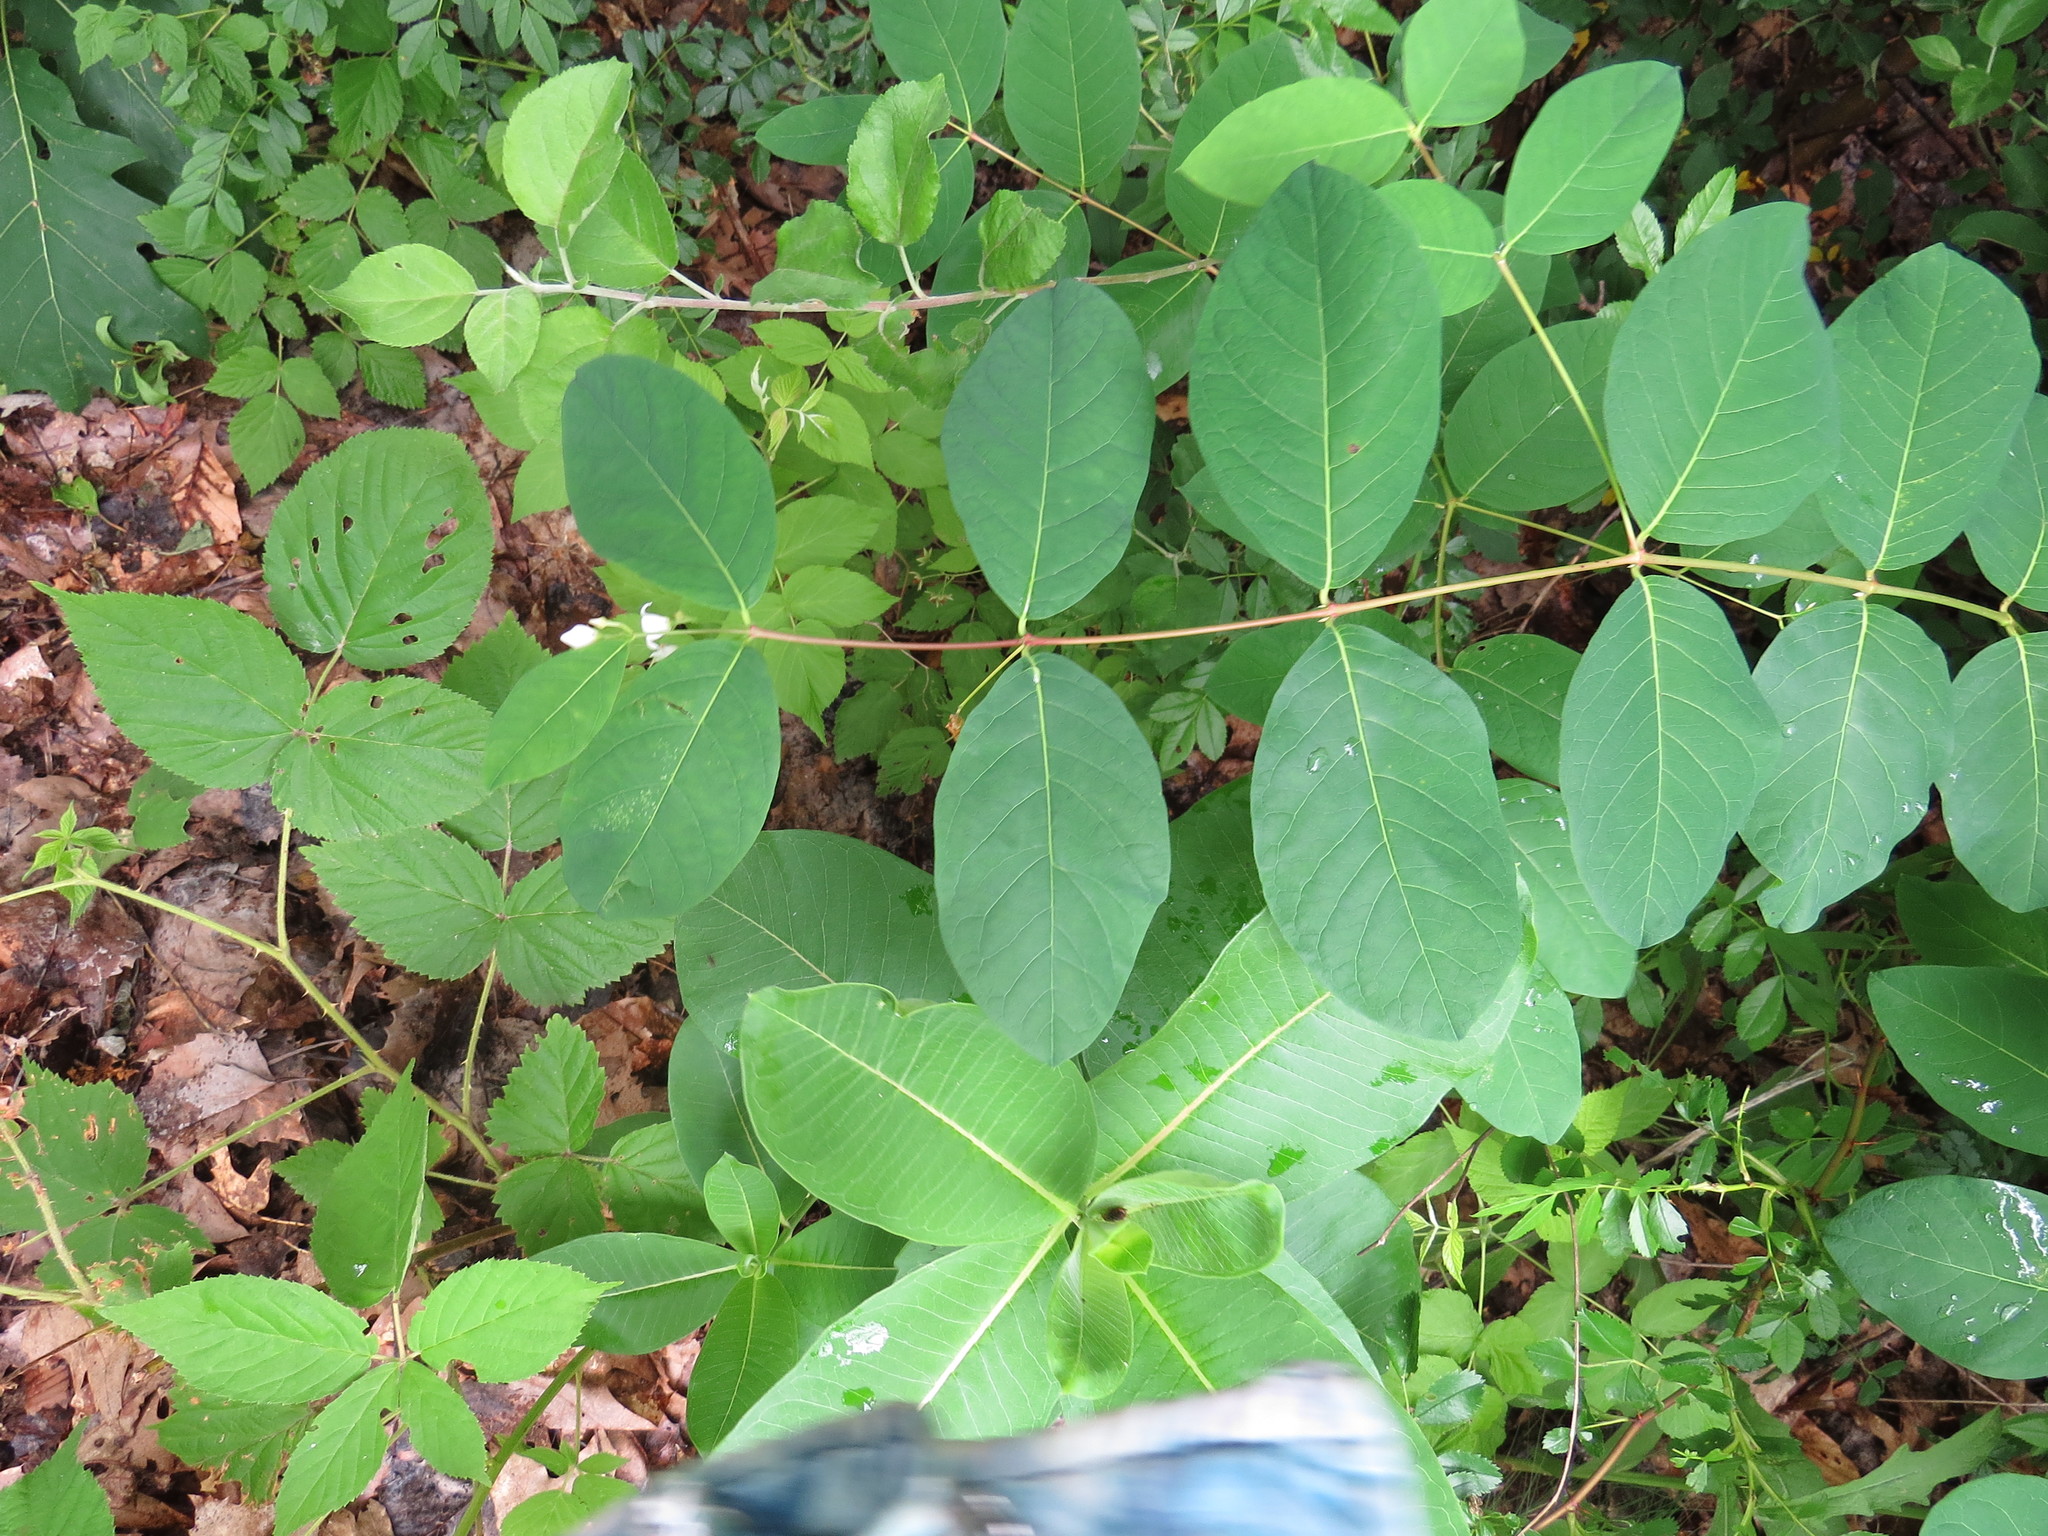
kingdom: Plantae
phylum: Tracheophyta
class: Magnoliopsida
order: Gentianales
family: Apocynaceae
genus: Apocynum
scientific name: Apocynum androsaemifolium
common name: Spreading dogbane
